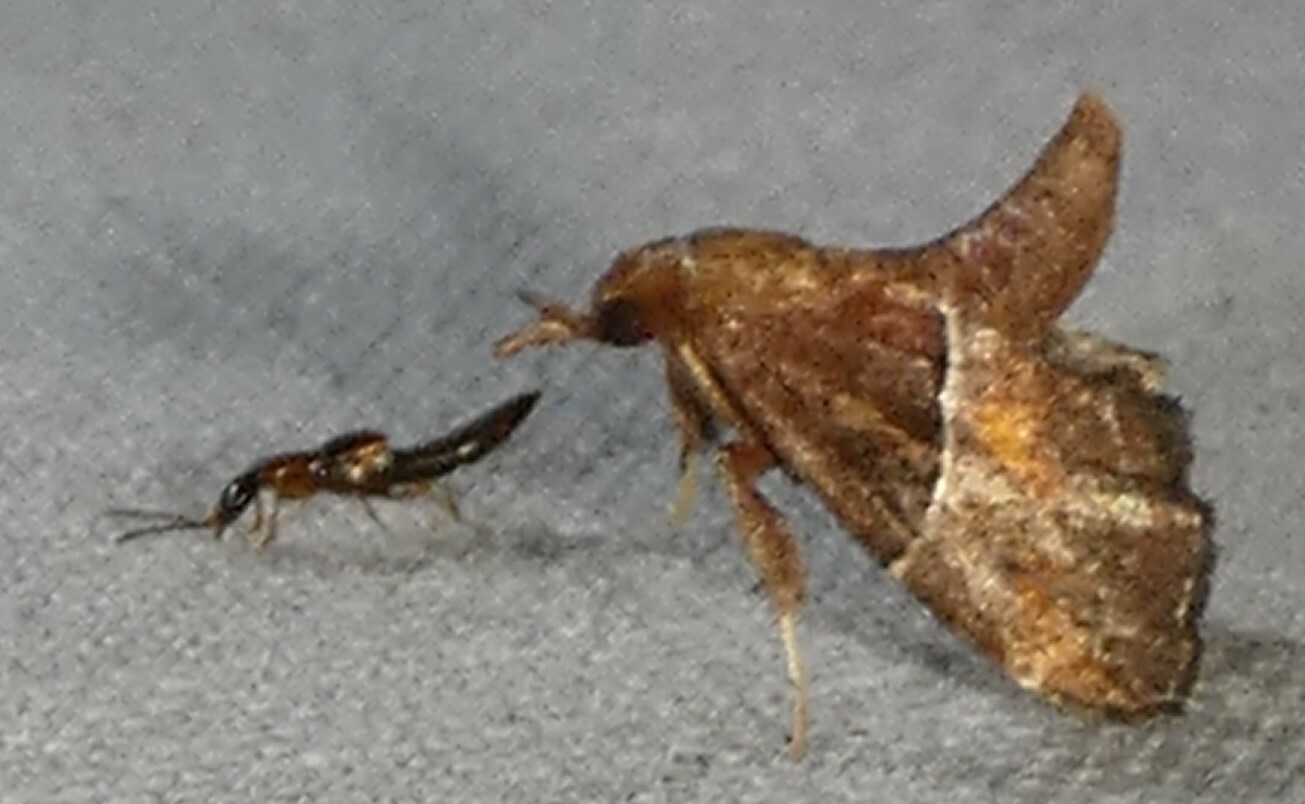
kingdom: Animalia
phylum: Arthropoda
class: Insecta
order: Lepidoptera
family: Pyralidae
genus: Penthesilea
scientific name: Penthesilea sacculalis
